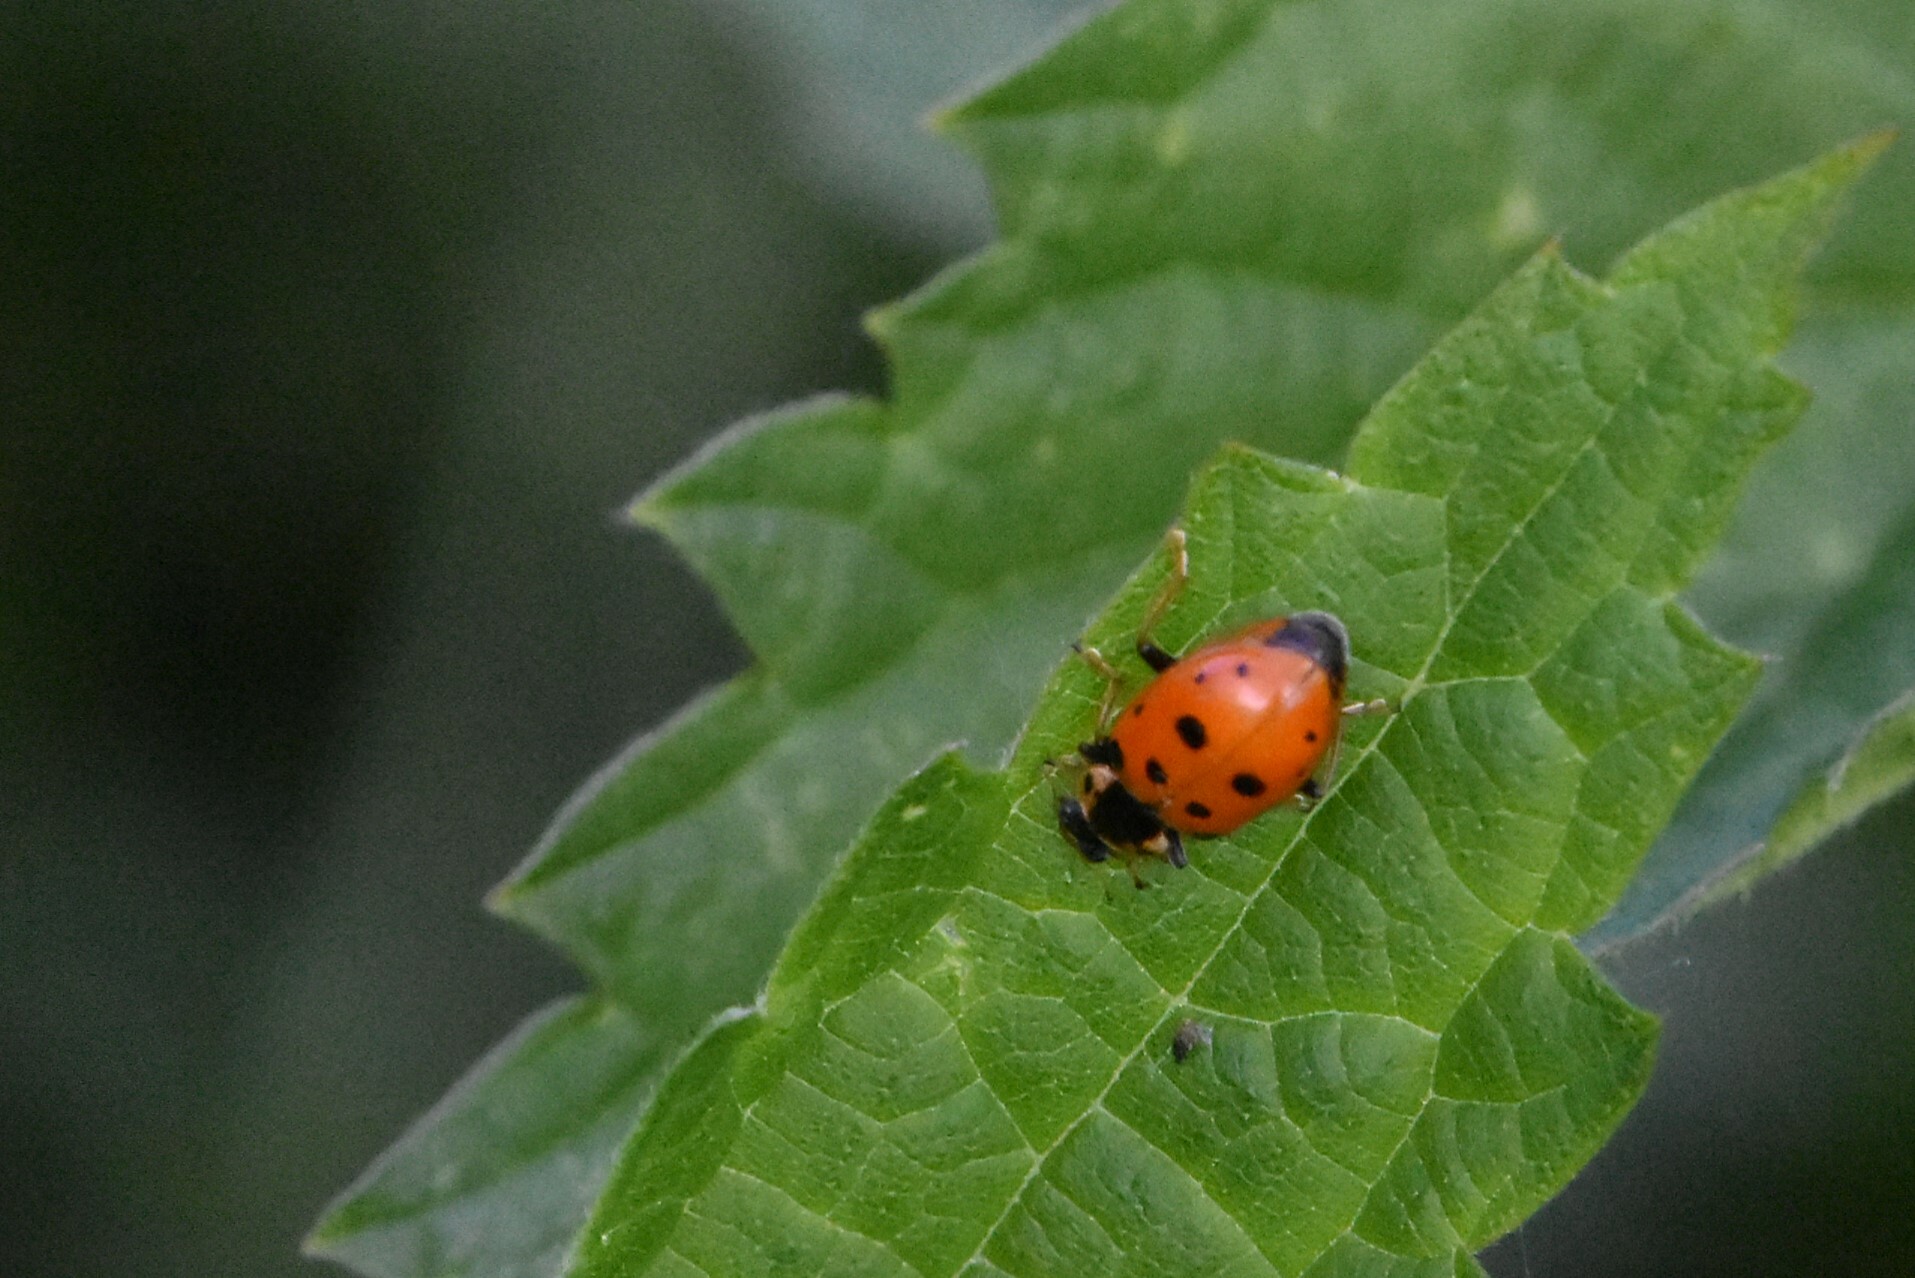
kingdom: Animalia
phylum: Arthropoda
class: Insecta
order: Coleoptera
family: Coccinellidae
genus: Hippodamia
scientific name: Hippodamia tredecimpunctata
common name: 13-spot ladybird
